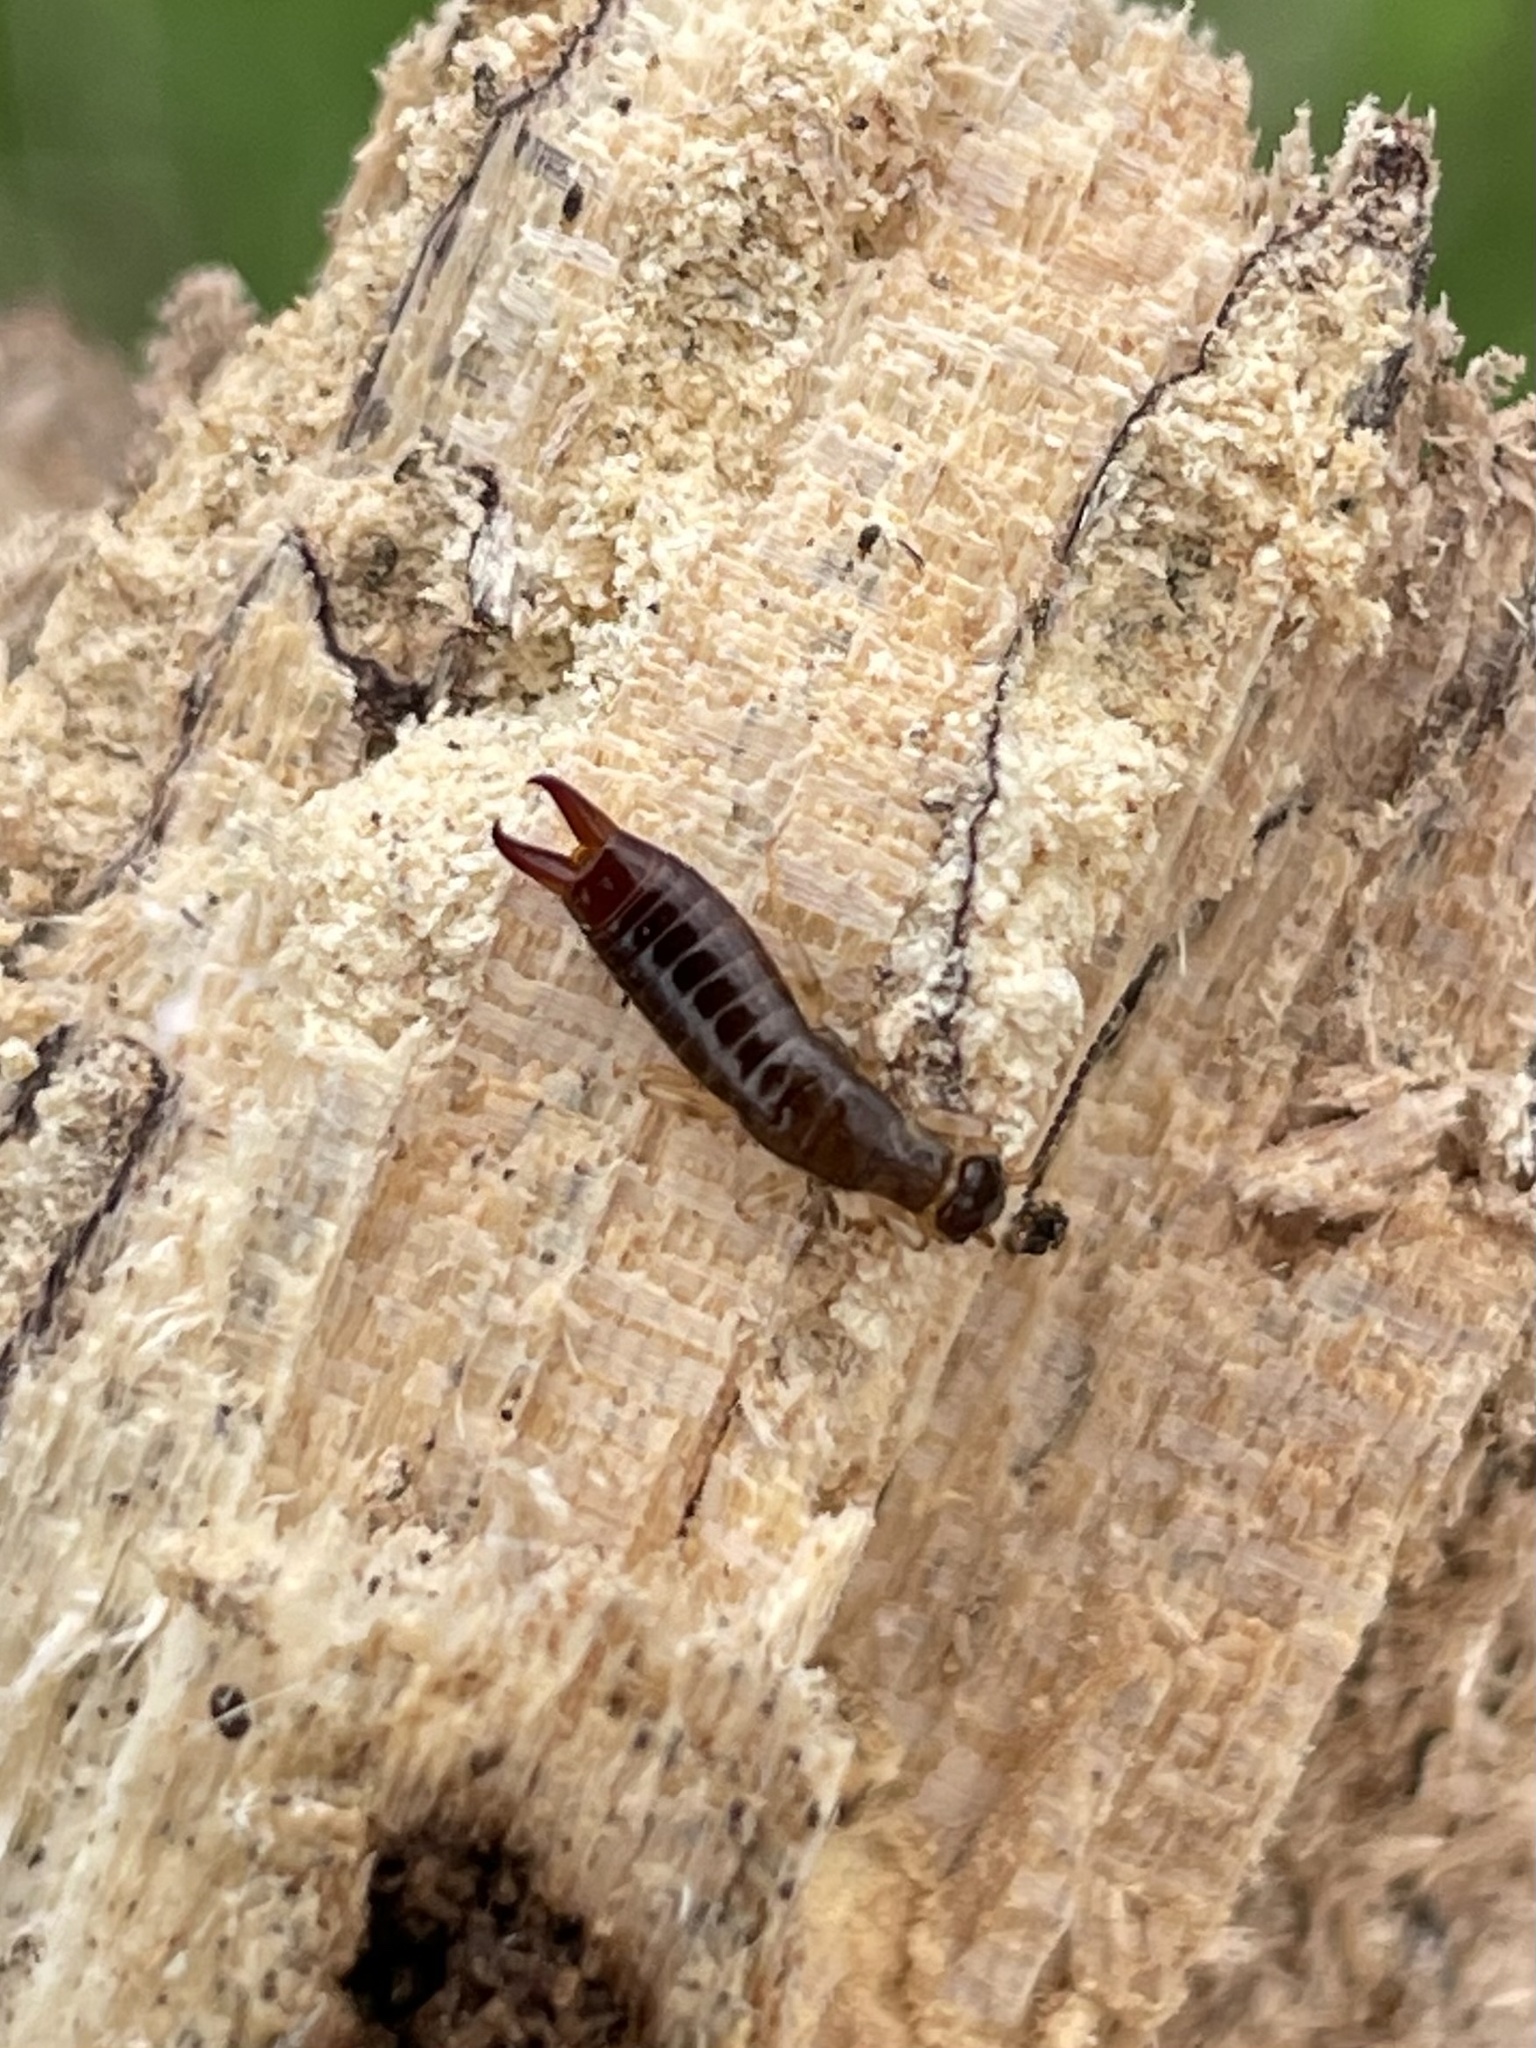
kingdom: Animalia
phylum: Arthropoda
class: Insecta
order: Dermaptera
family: Anisolabididae
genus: Euborellia
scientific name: Euborellia annulipes
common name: Ringlegged earwig
